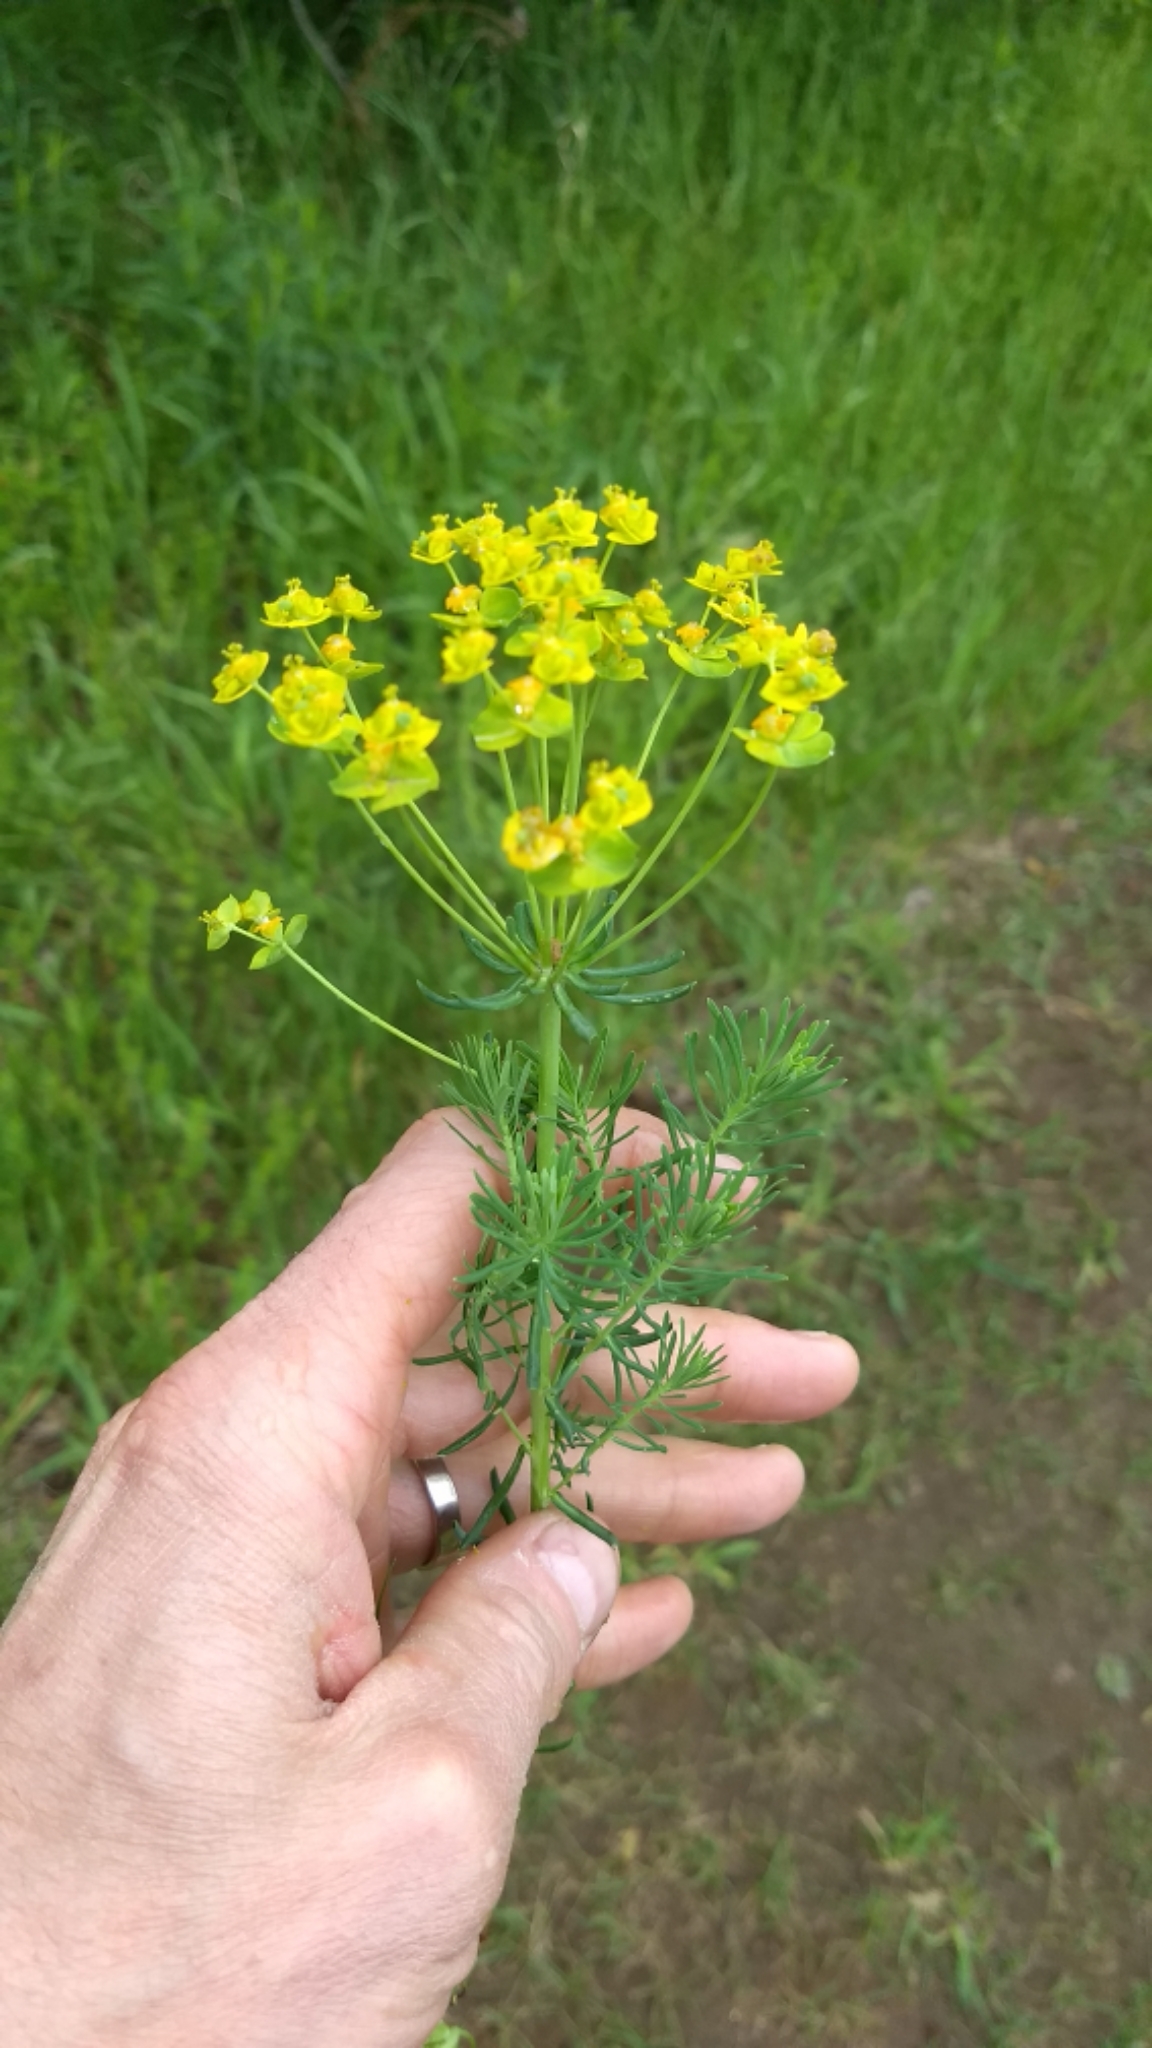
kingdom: Plantae
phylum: Tracheophyta
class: Magnoliopsida
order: Malpighiales
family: Euphorbiaceae
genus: Euphorbia
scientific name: Euphorbia cyparissias
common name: Cypress spurge
